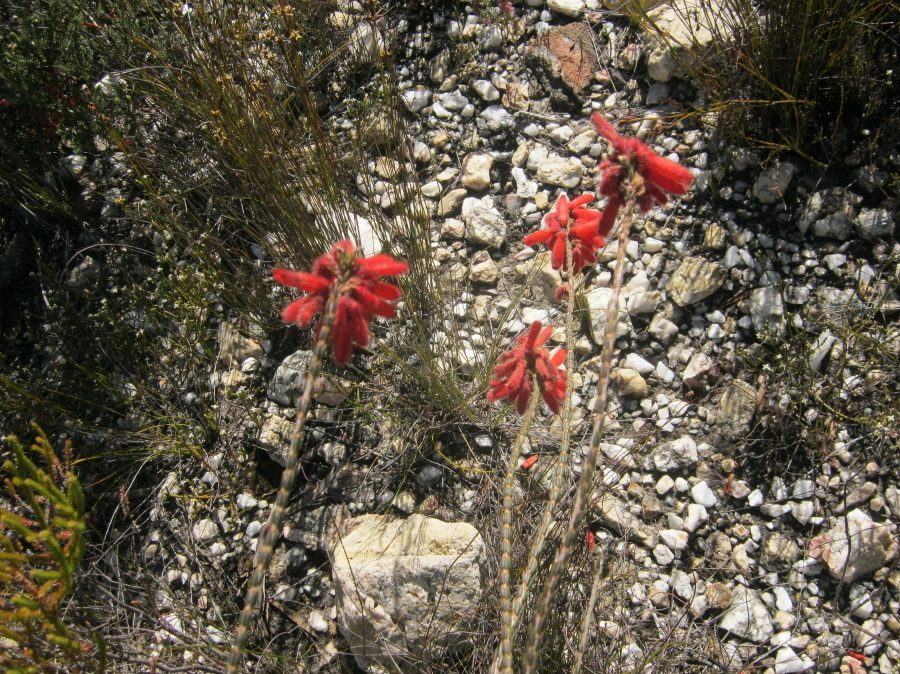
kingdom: Plantae
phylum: Tracheophyta
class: Magnoliopsida
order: Ericales
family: Ericaceae
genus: Erica
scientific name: Erica cerinthoides
